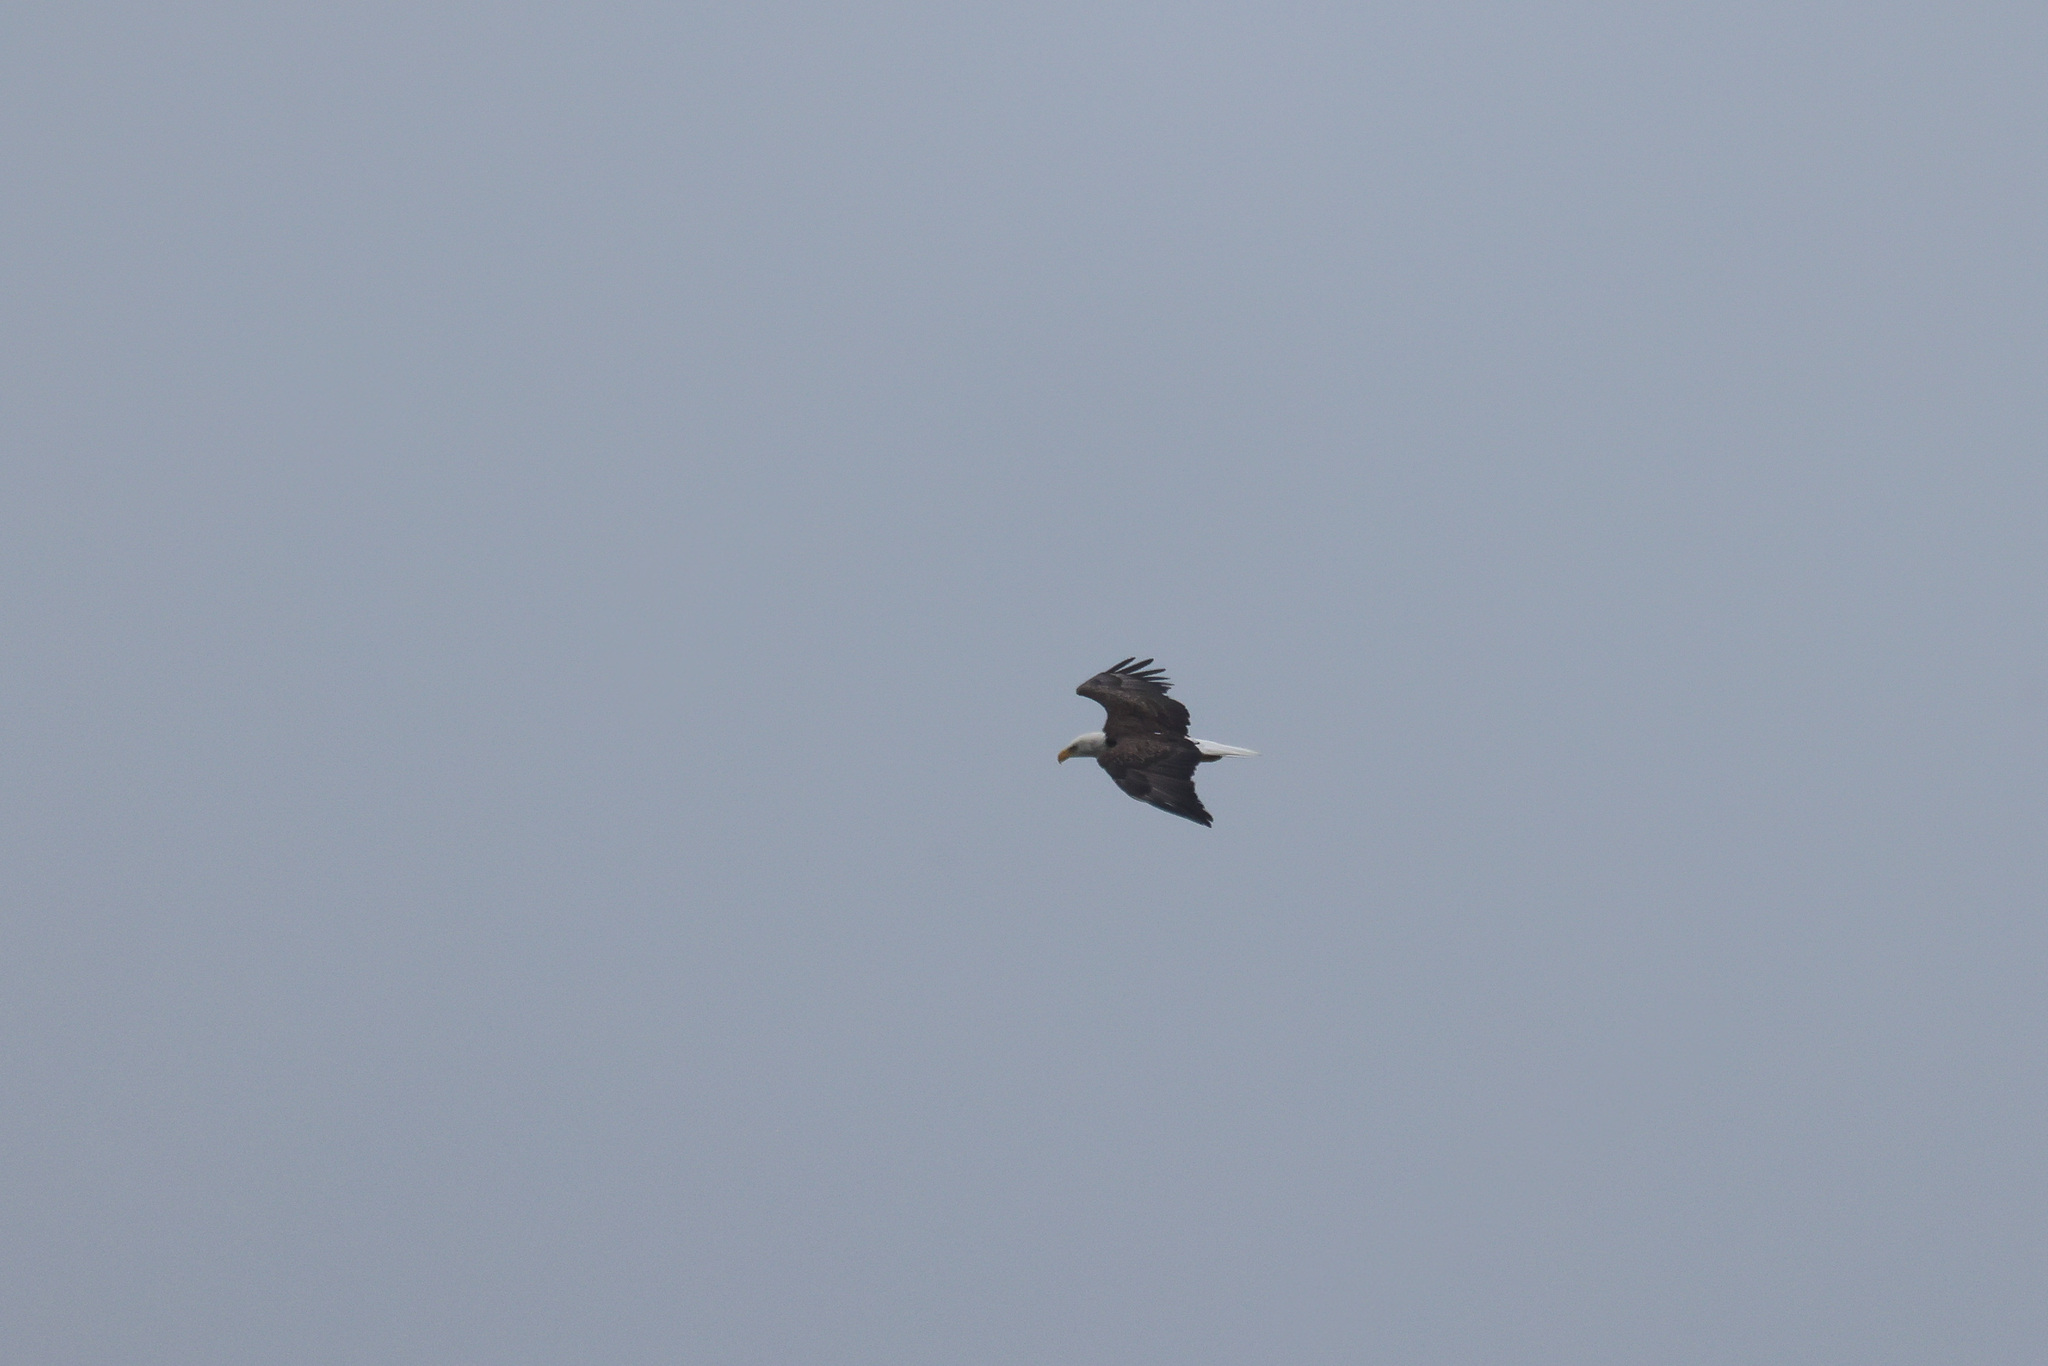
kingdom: Animalia
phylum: Chordata
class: Aves
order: Accipitriformes
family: Accipitridae
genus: Haliaeetus
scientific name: Haliaeetus leucocephalus
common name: Bald eagle
